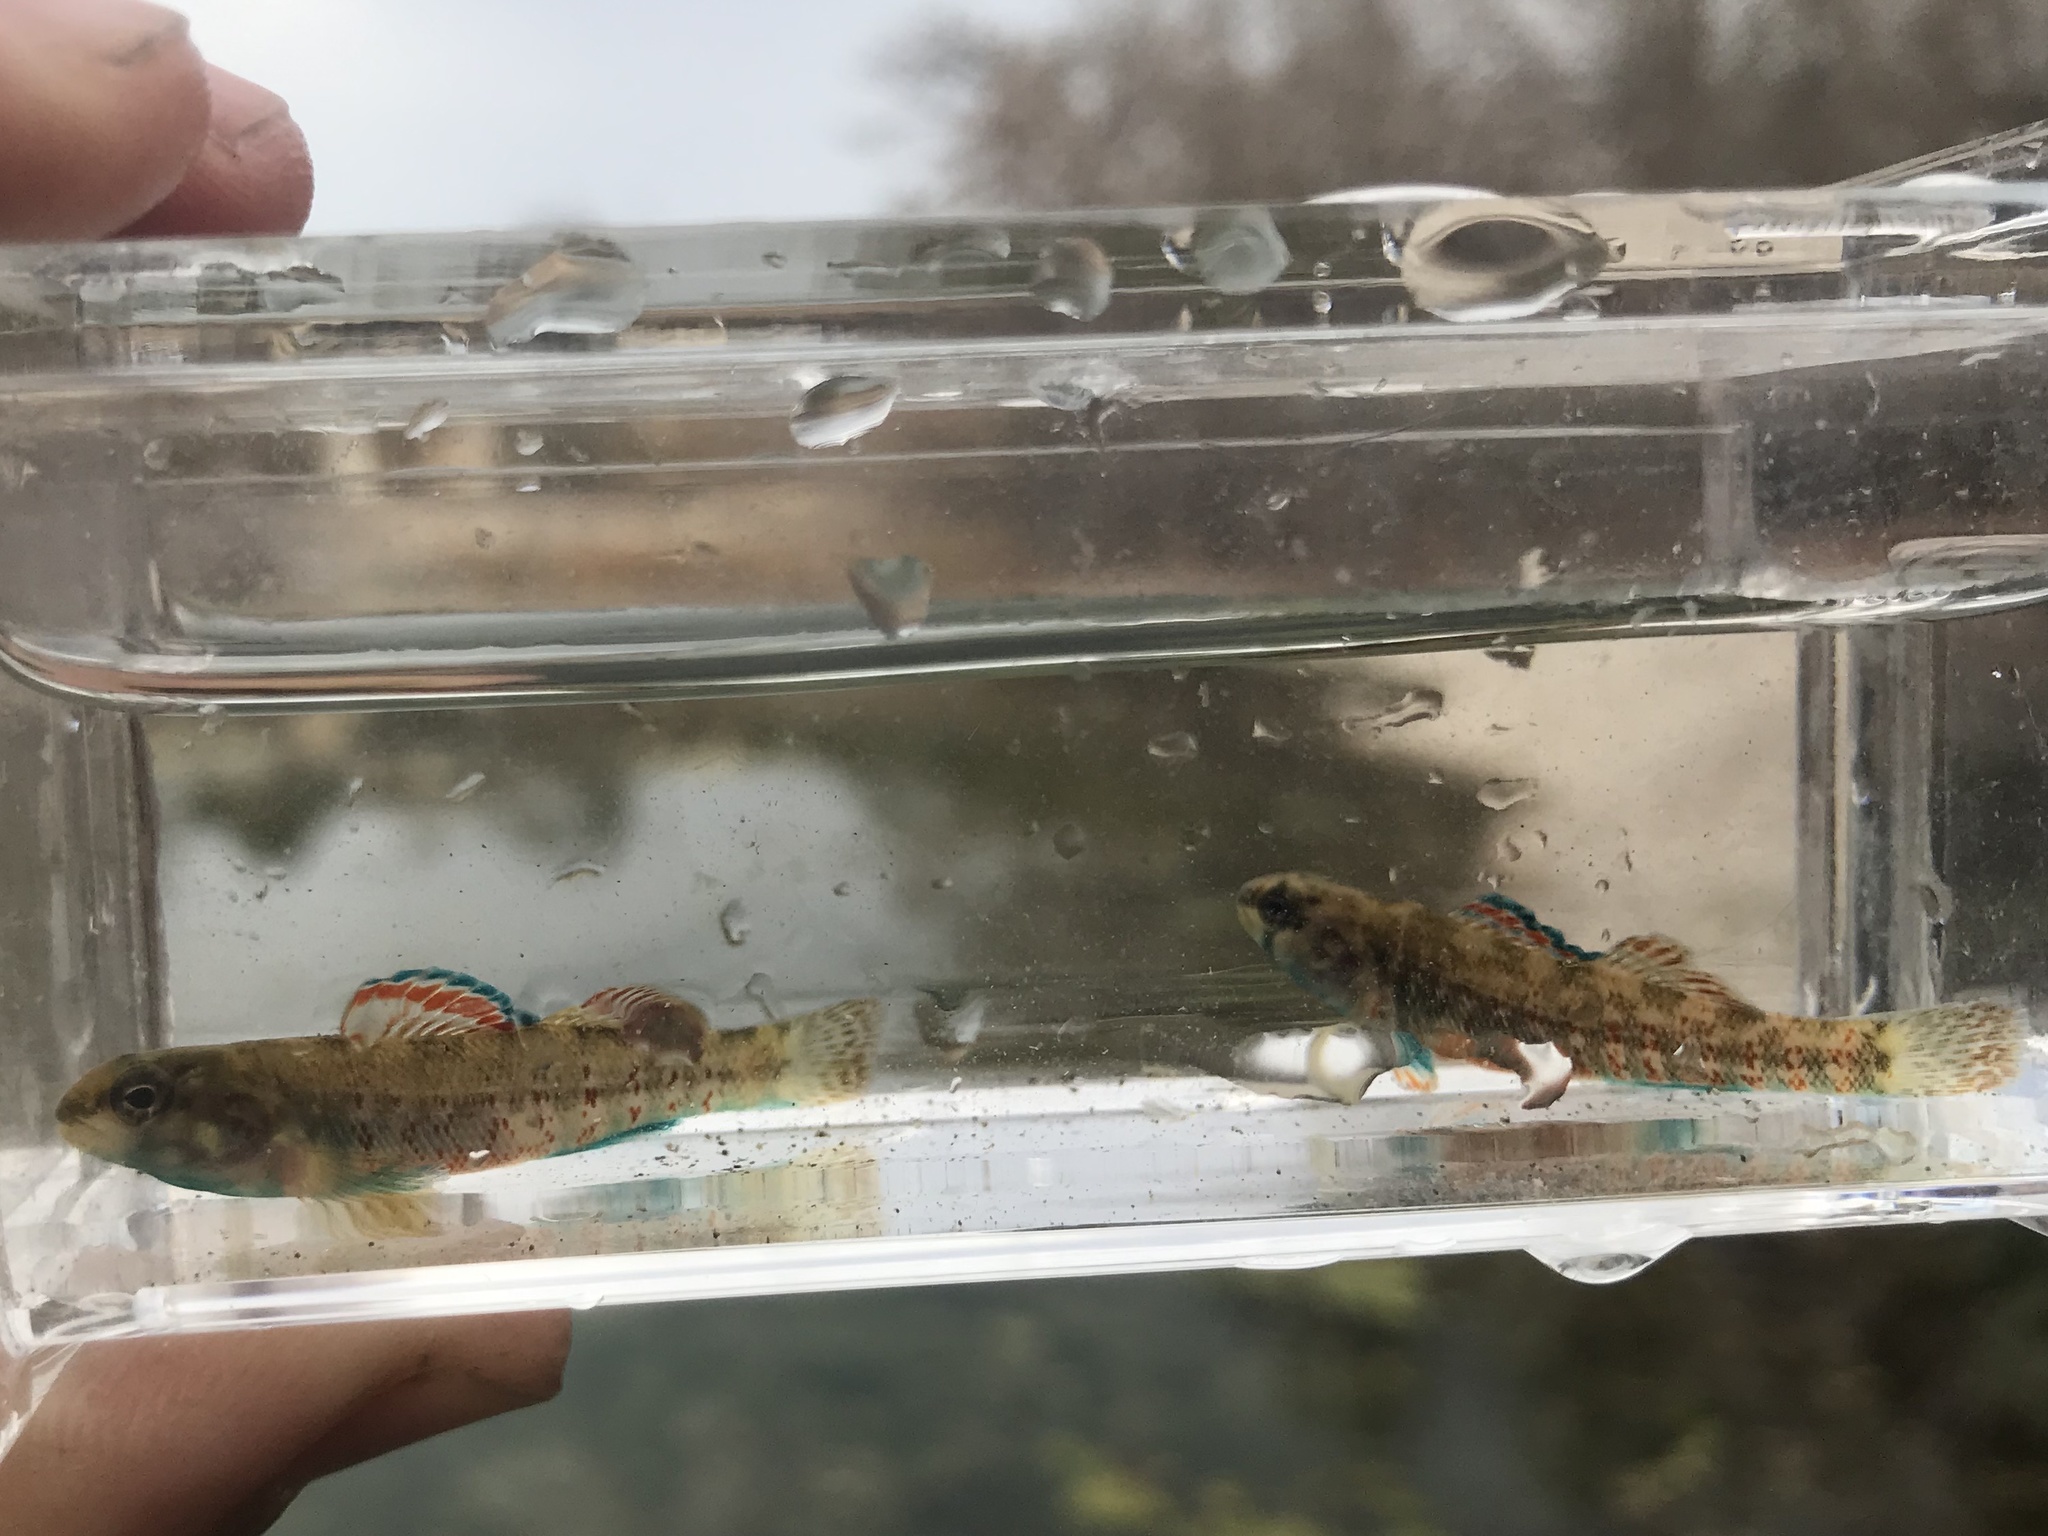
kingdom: Animalia
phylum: Chordata
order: Perciformes
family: Percidae
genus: Etheostoma
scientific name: Etheostoma lepidum
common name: Greenthroat darter
